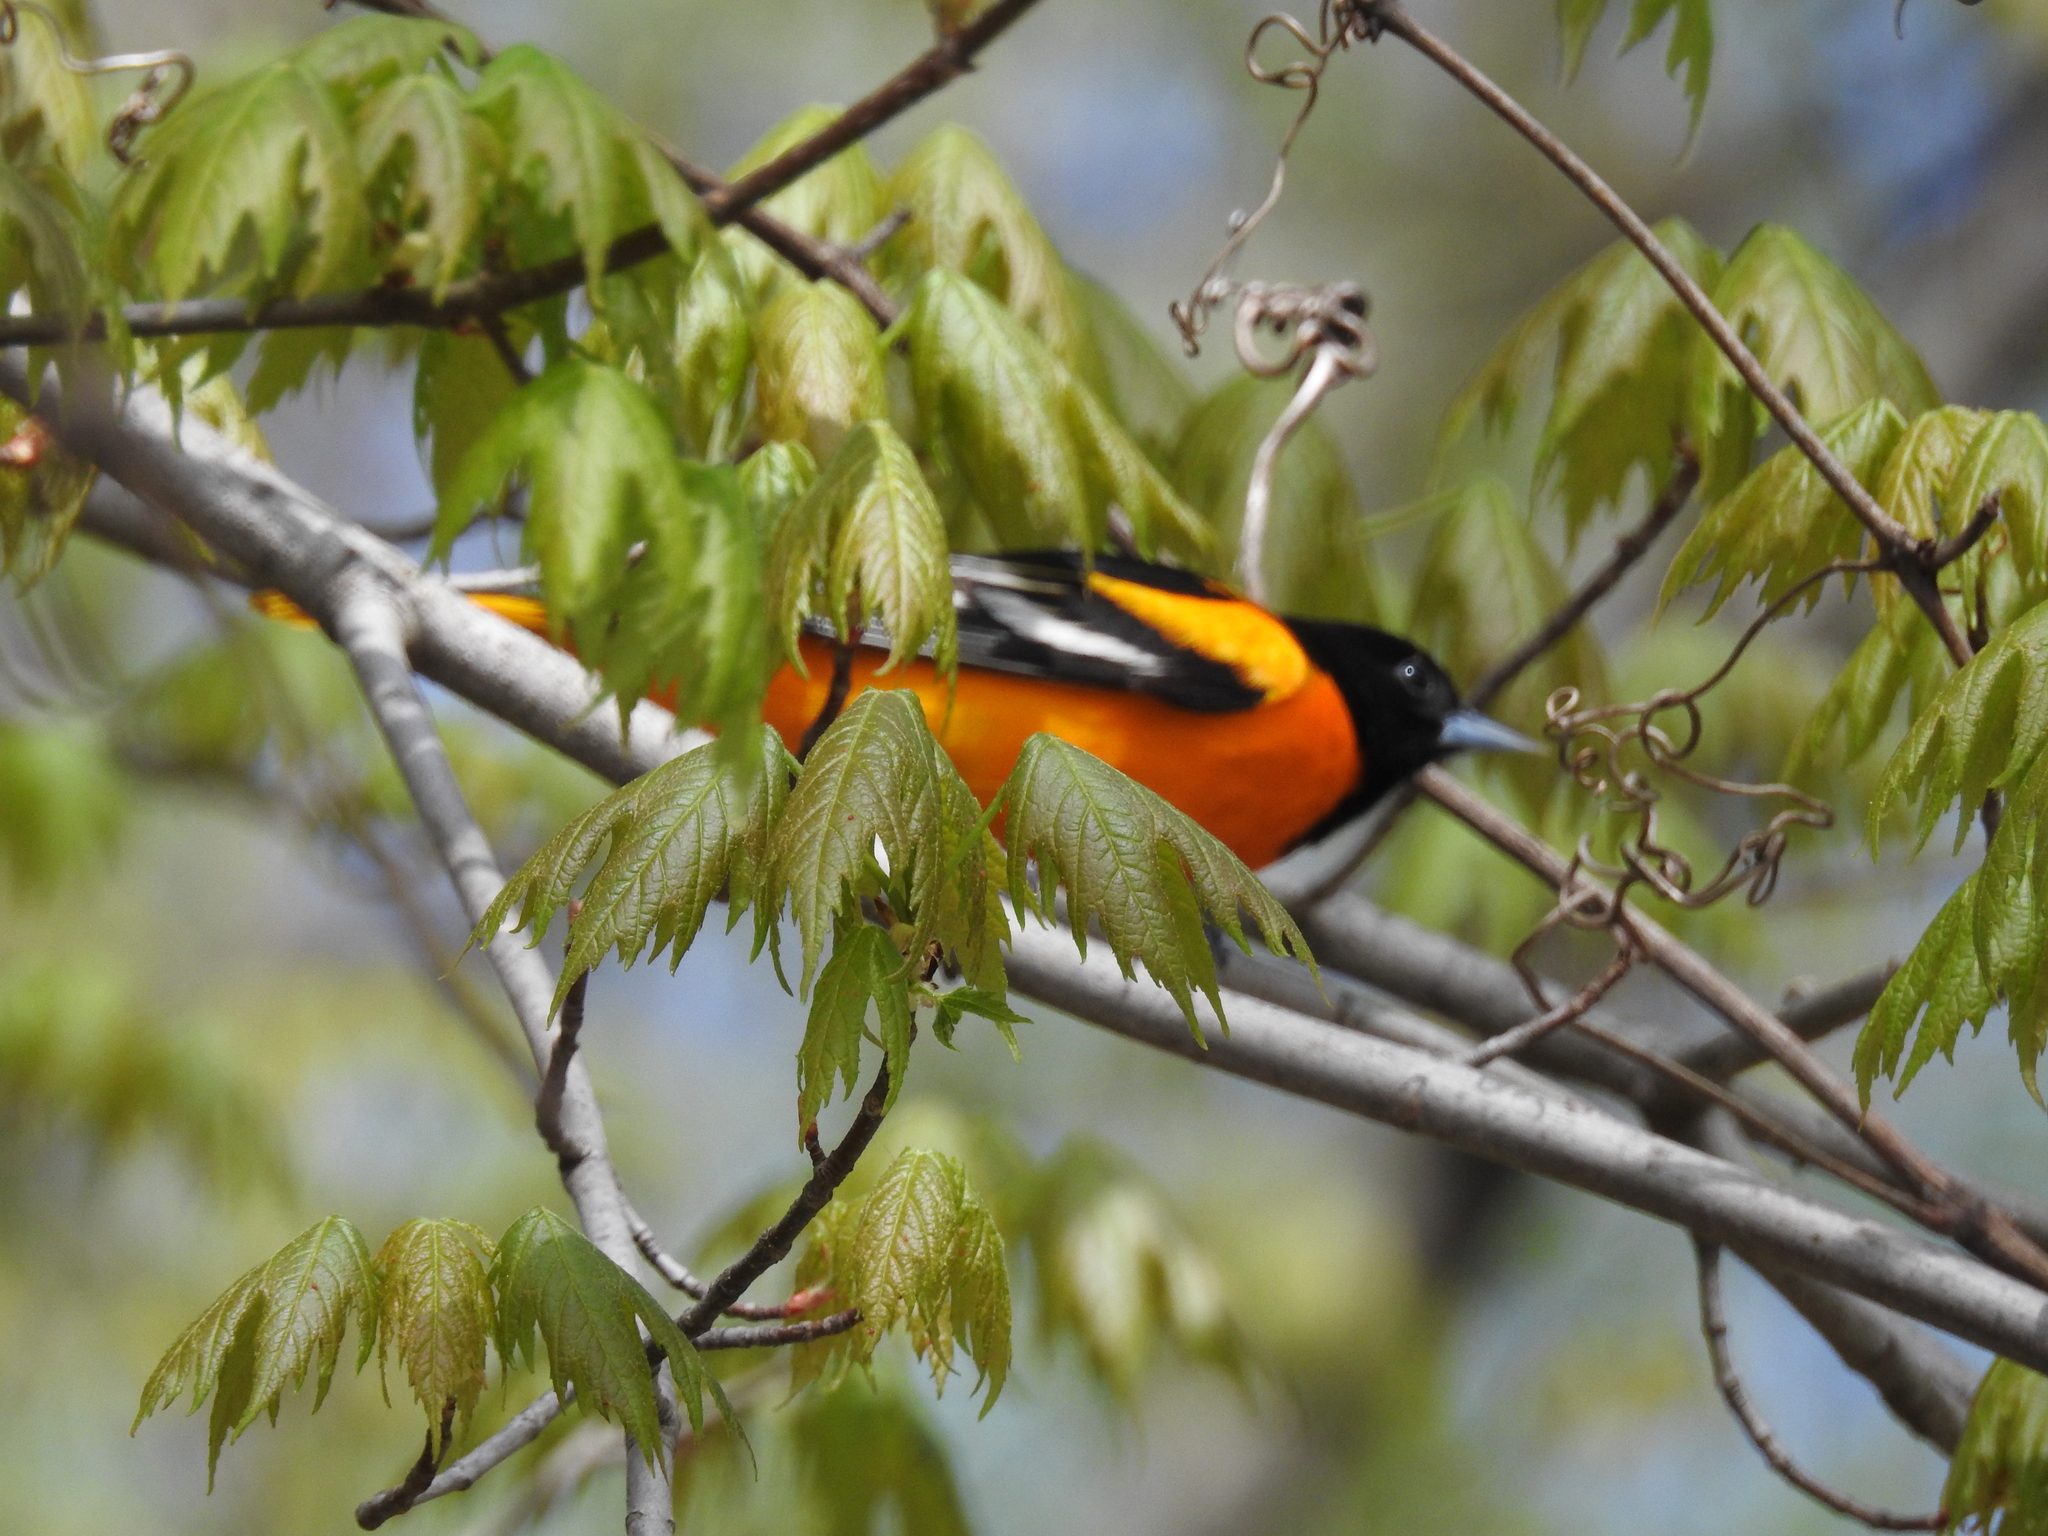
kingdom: Animalia
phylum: Chordata
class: Aves
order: Passeriformes
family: Icteridae
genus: Icterus
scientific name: Icterus galbula
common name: Baltimore oriole
